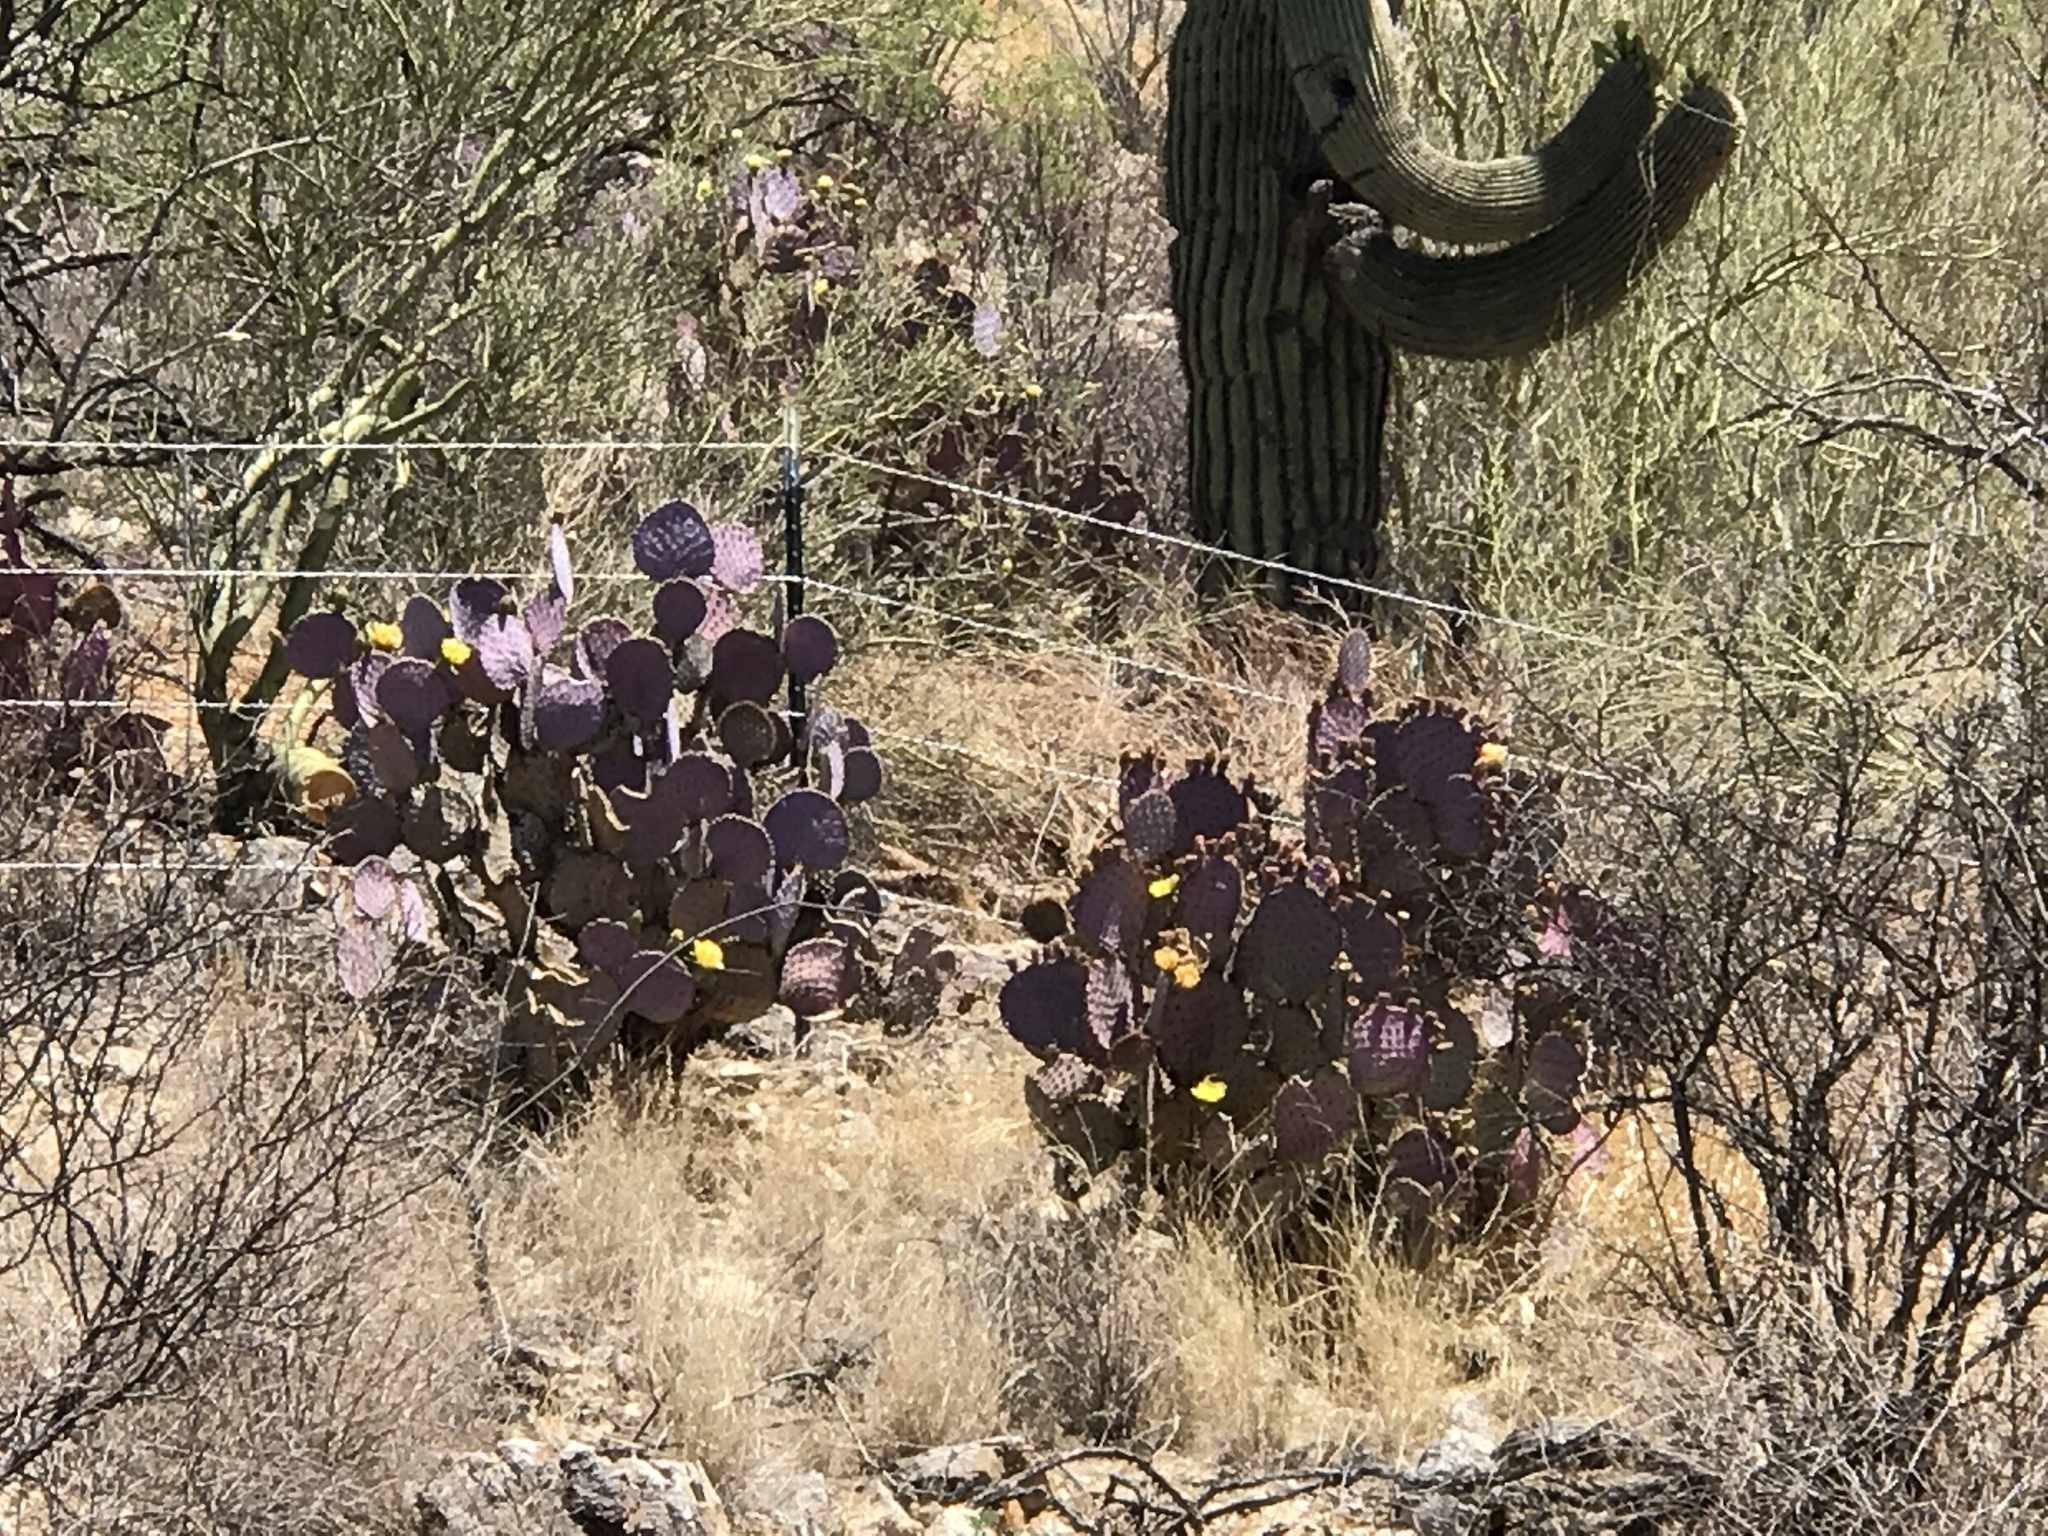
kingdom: Plantae
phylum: Tracheophyta
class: Magnoliopsida
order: Caryophyllales
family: Cactaceae
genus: Opuntia
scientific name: Opuntia gosseliniana
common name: Violet prickly-pear
